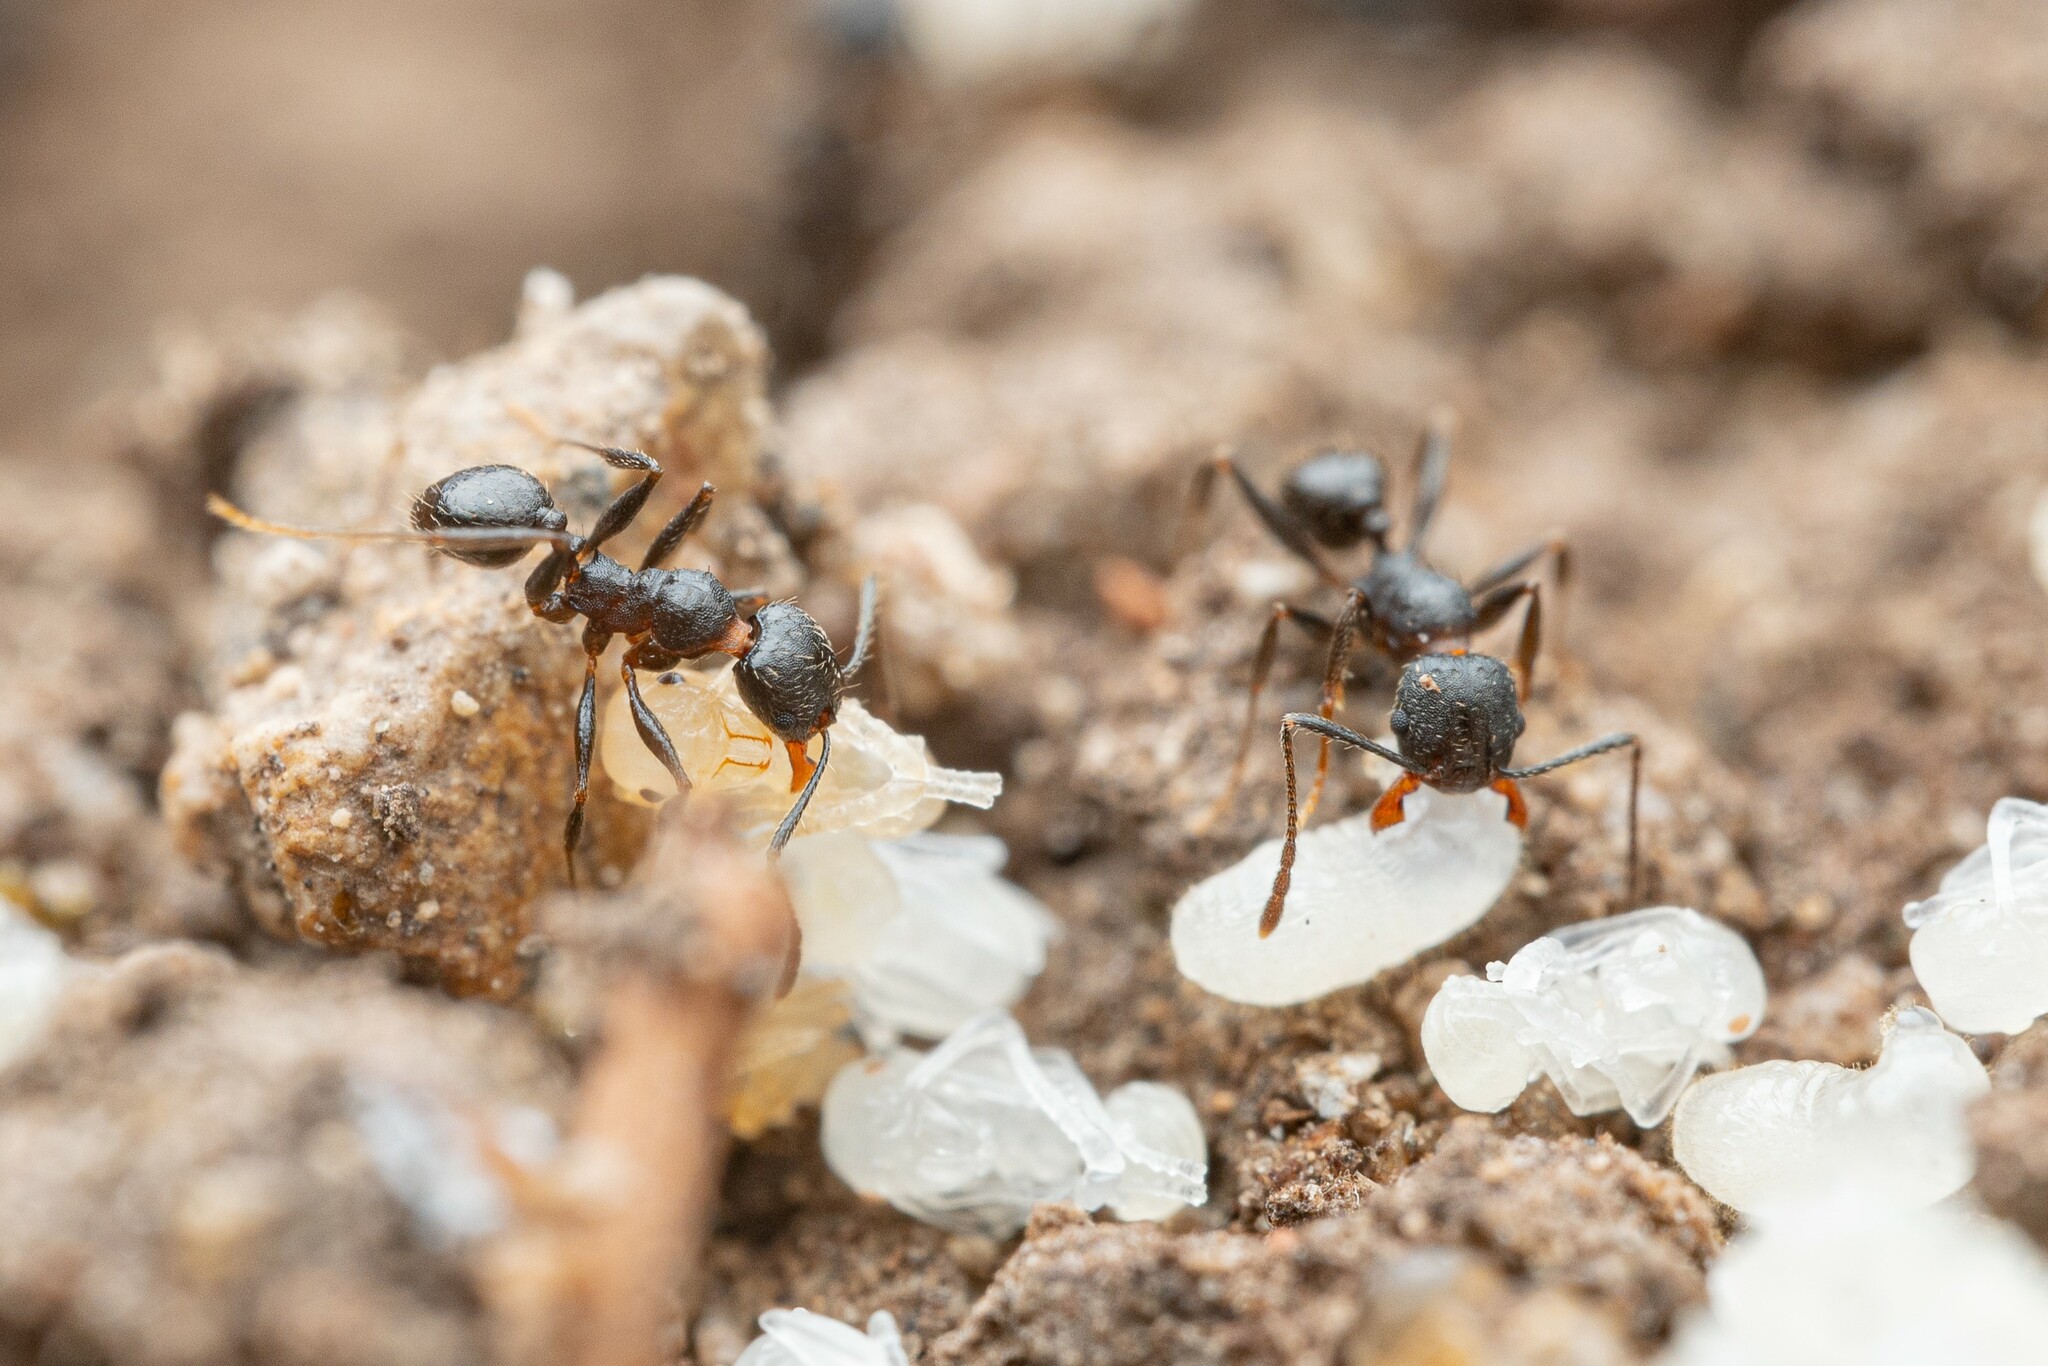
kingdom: Animalia
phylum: Arthropoda
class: Insecta
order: Hymenoptera
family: Formicidae
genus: Pheidole
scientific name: Pheidole
